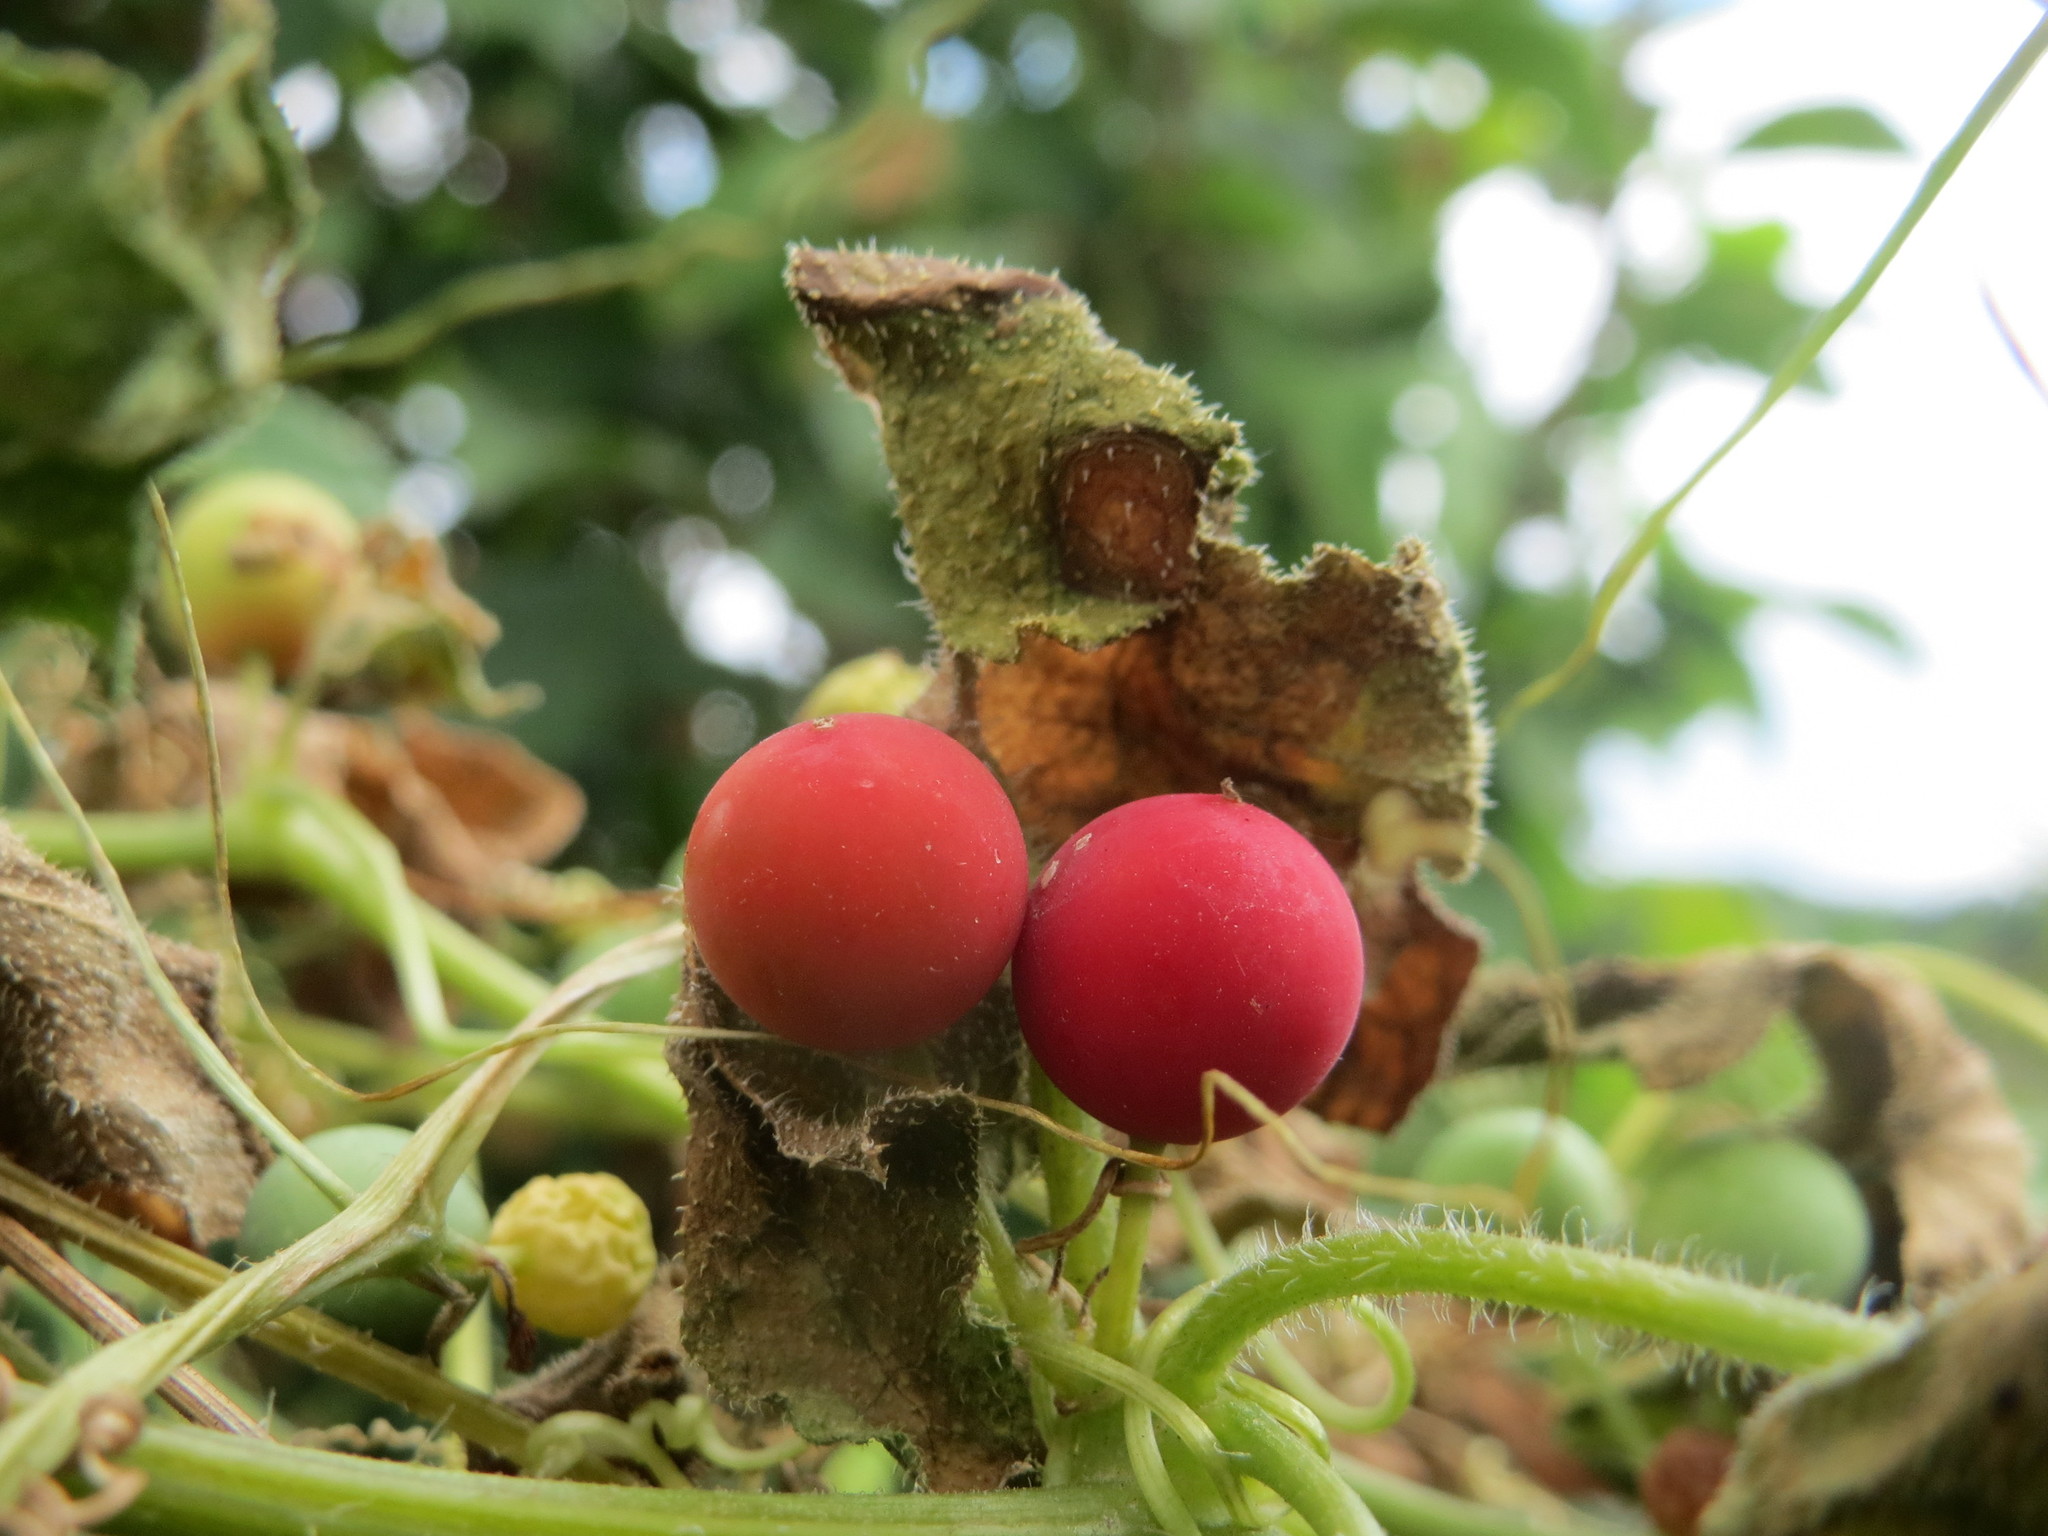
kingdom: Plantae
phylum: Tracheophyta
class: Magnoliopsida
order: Cucurbitales
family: Cucurbitaceae
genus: Bryonia
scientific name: Bryonia dioica
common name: White bryony
